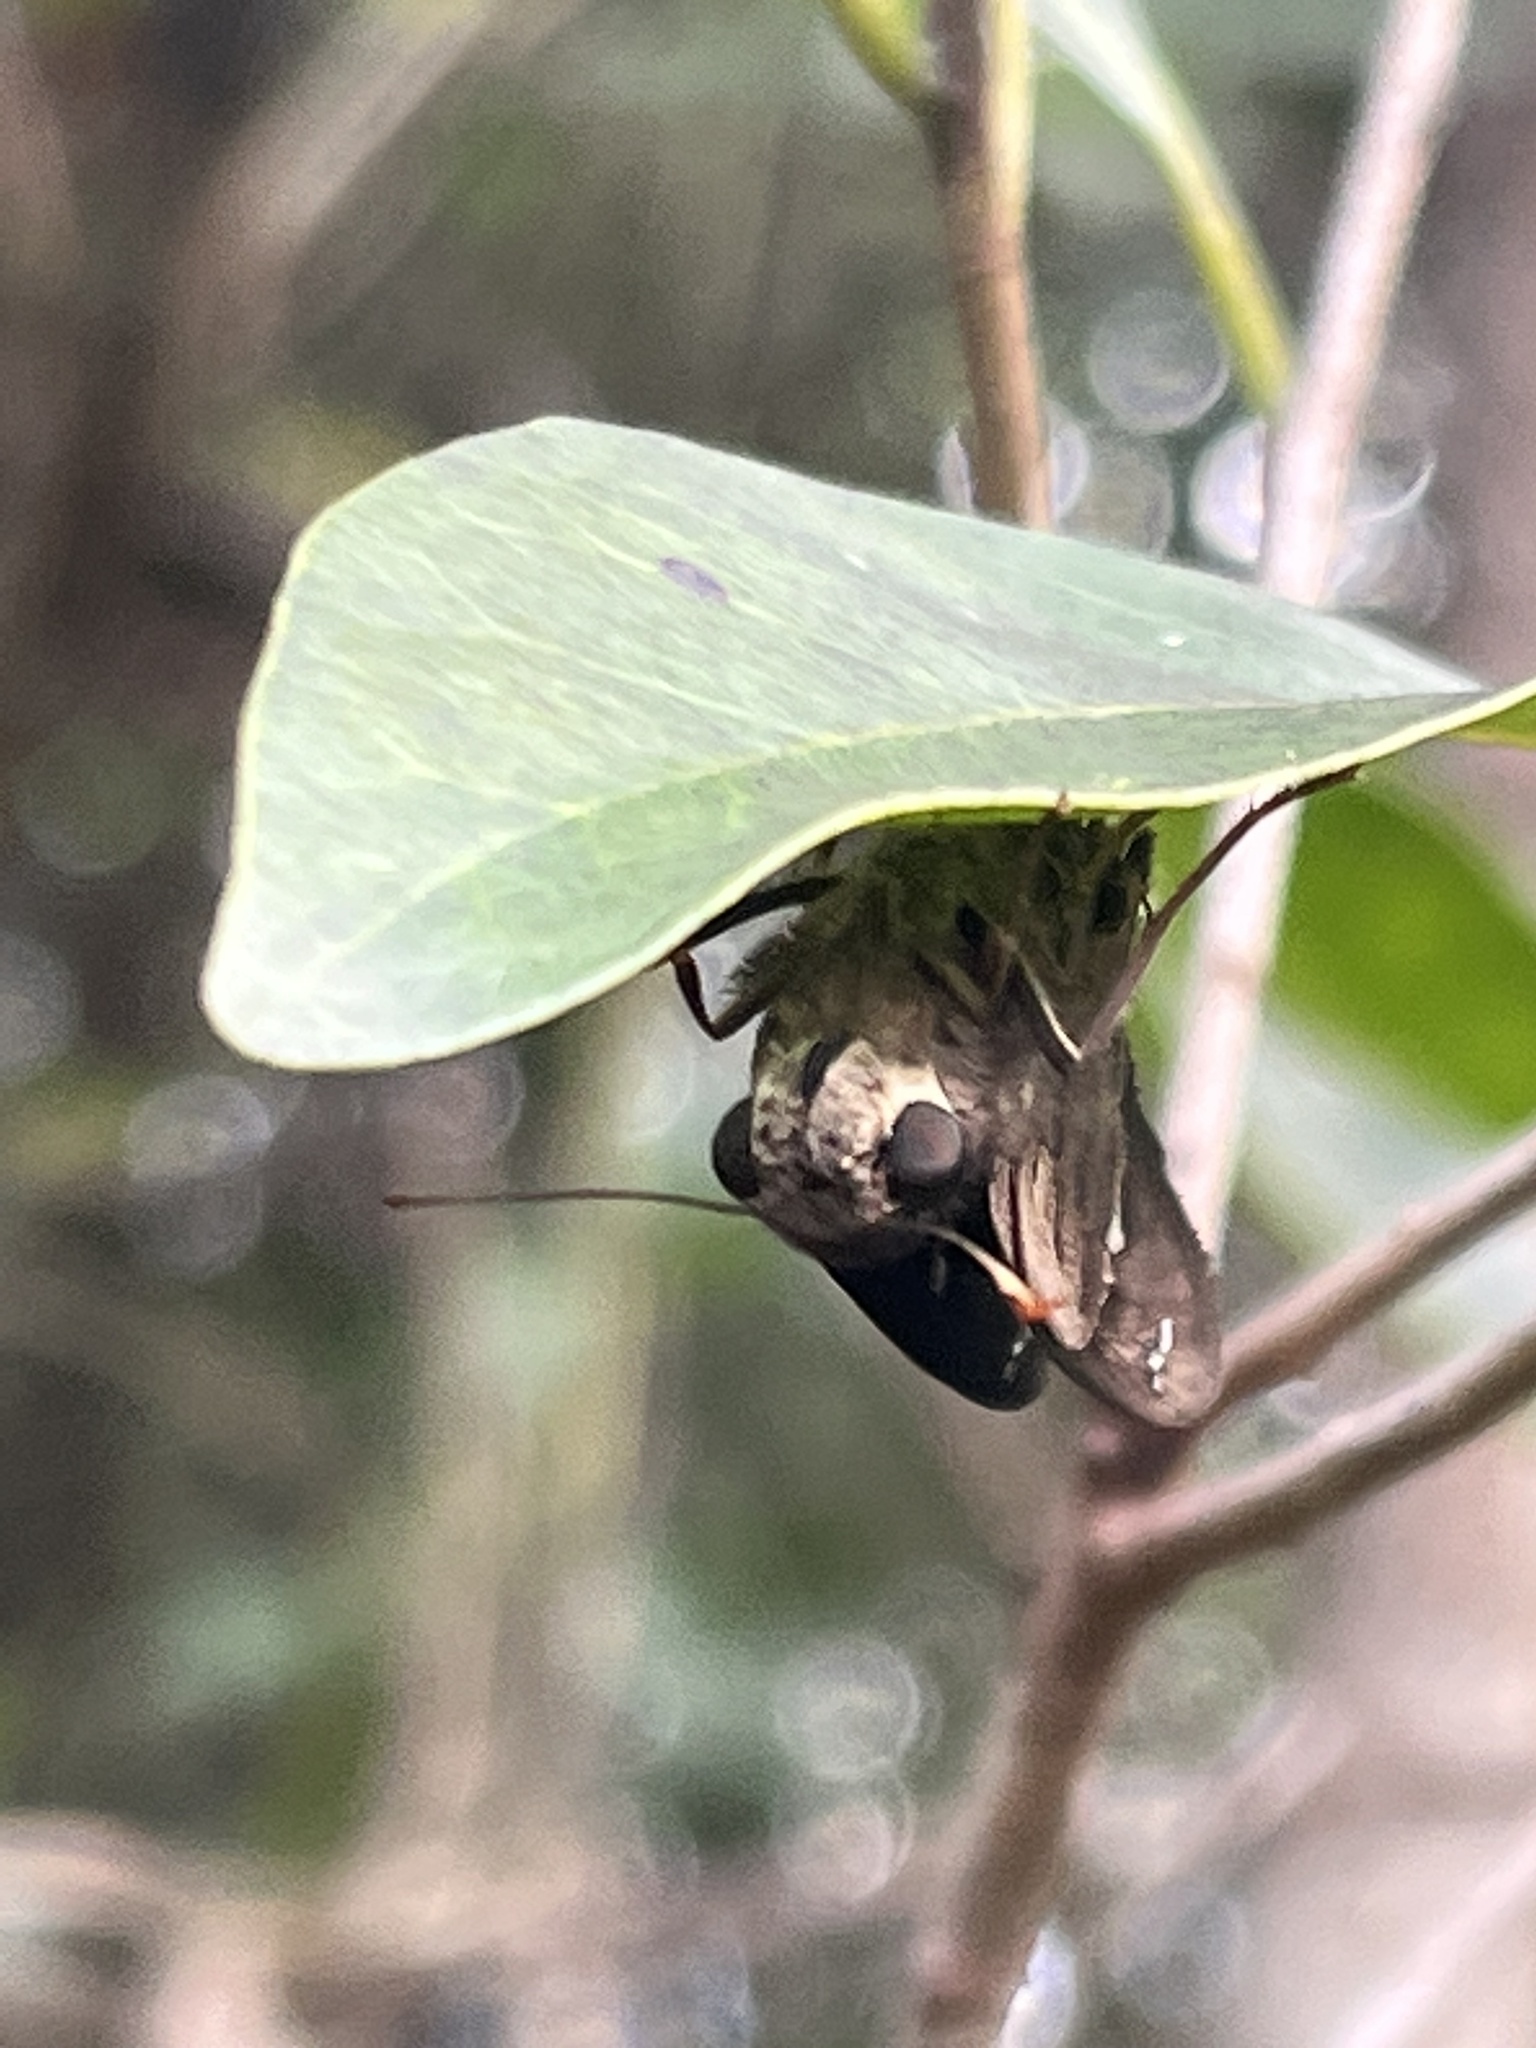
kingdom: Animalia
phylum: Arthropoda
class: Insecta
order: Lepidoptera
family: Hesperiidae
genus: Polygonus
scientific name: Polygonus leo
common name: Hammoch skipper
